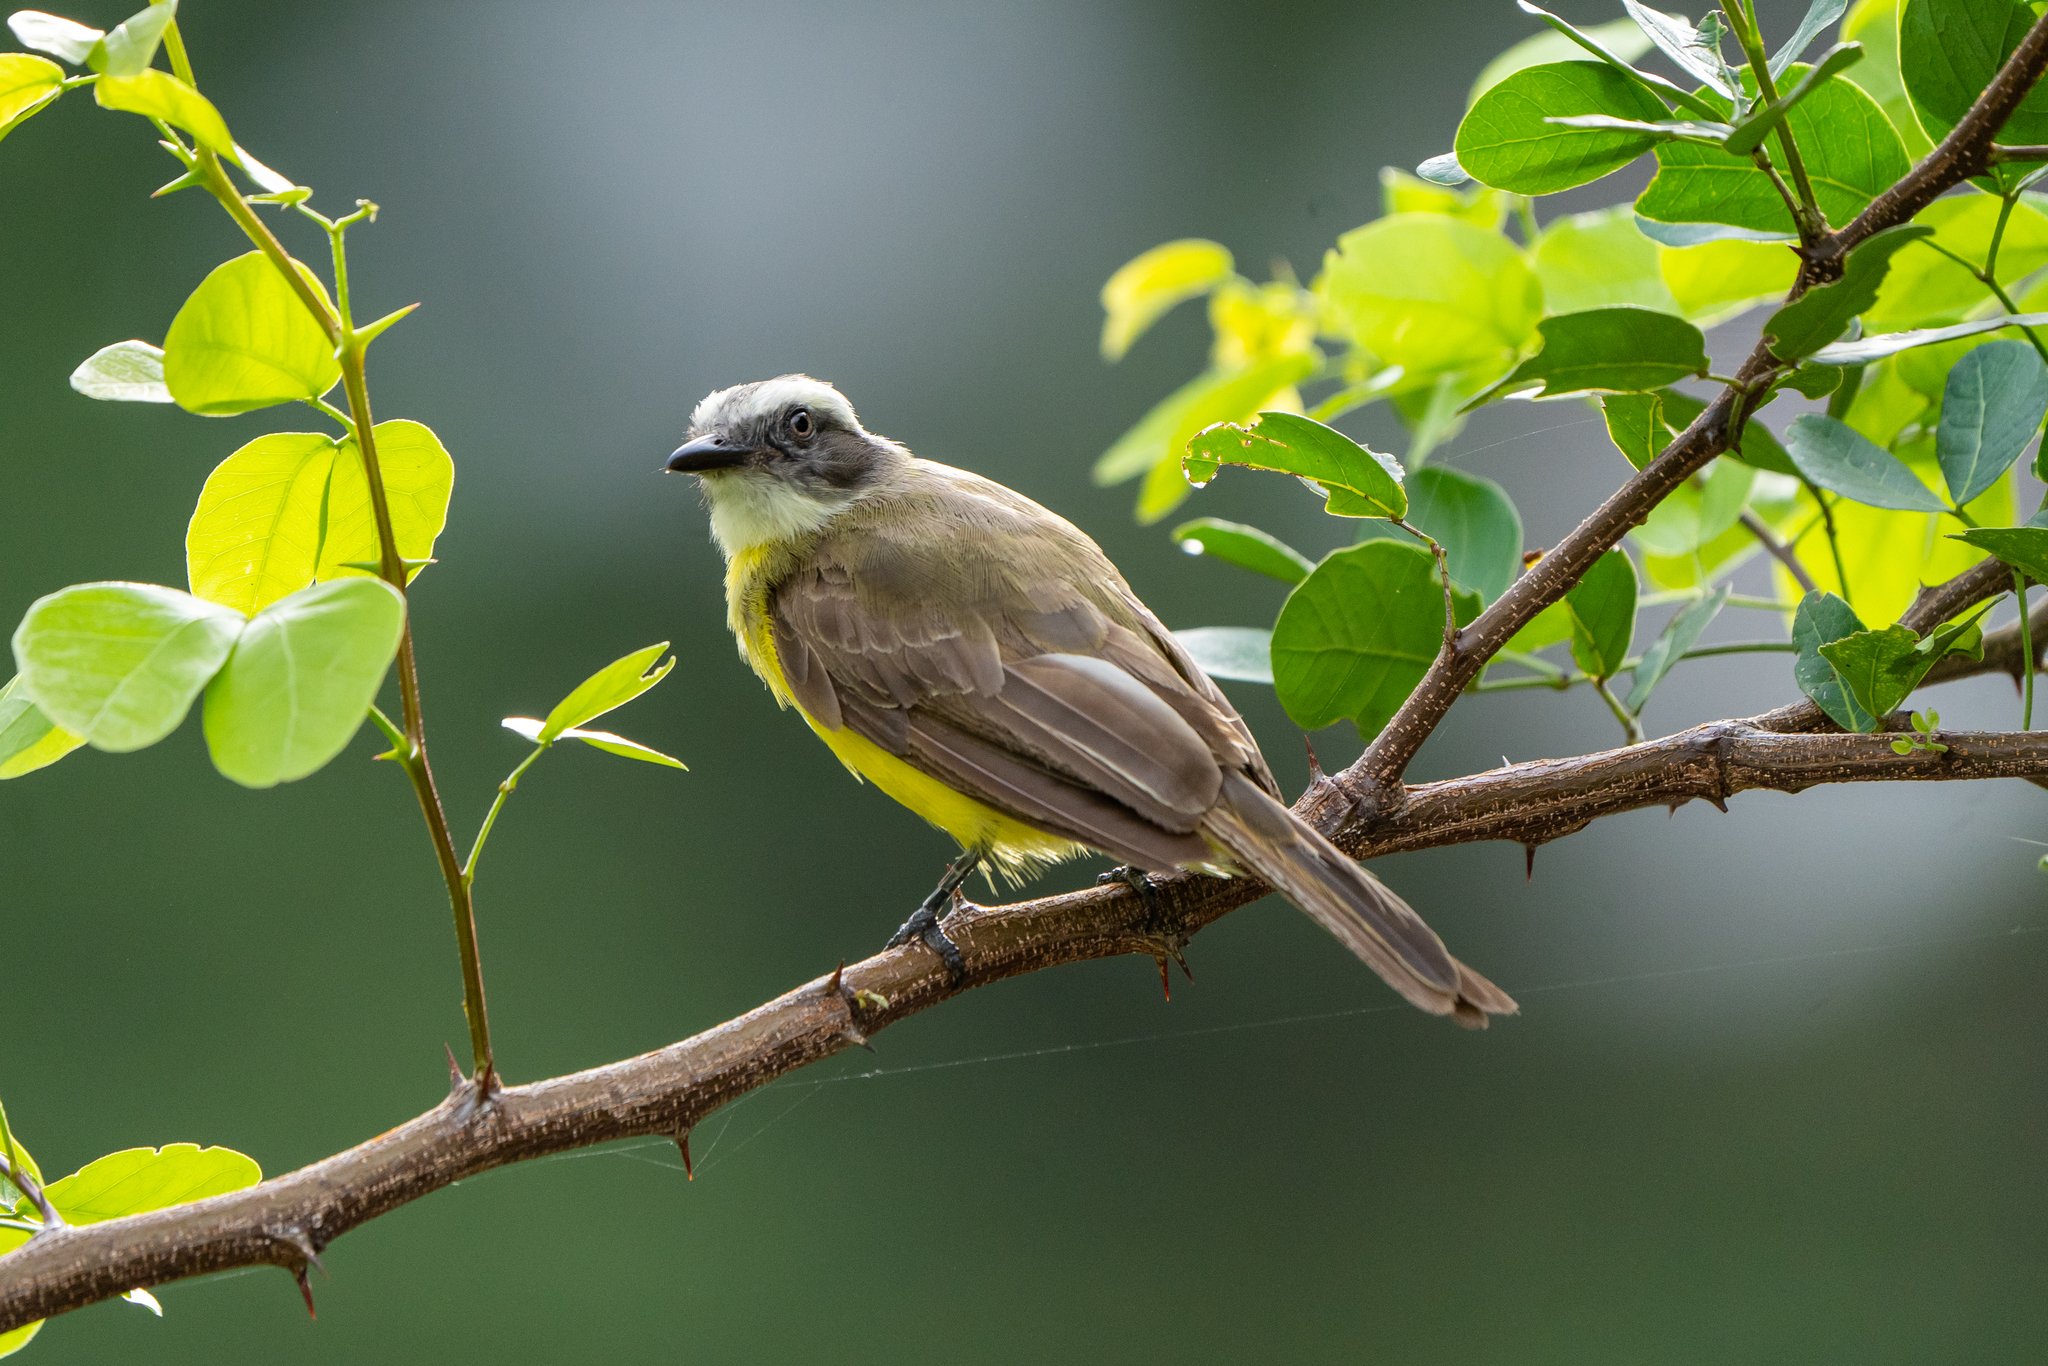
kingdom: Animalia
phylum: Chordata
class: Aves
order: Passeriformes
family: Tyrannidae
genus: Myiozetetes
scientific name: Myiozetetes similis
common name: Social flycatcher
